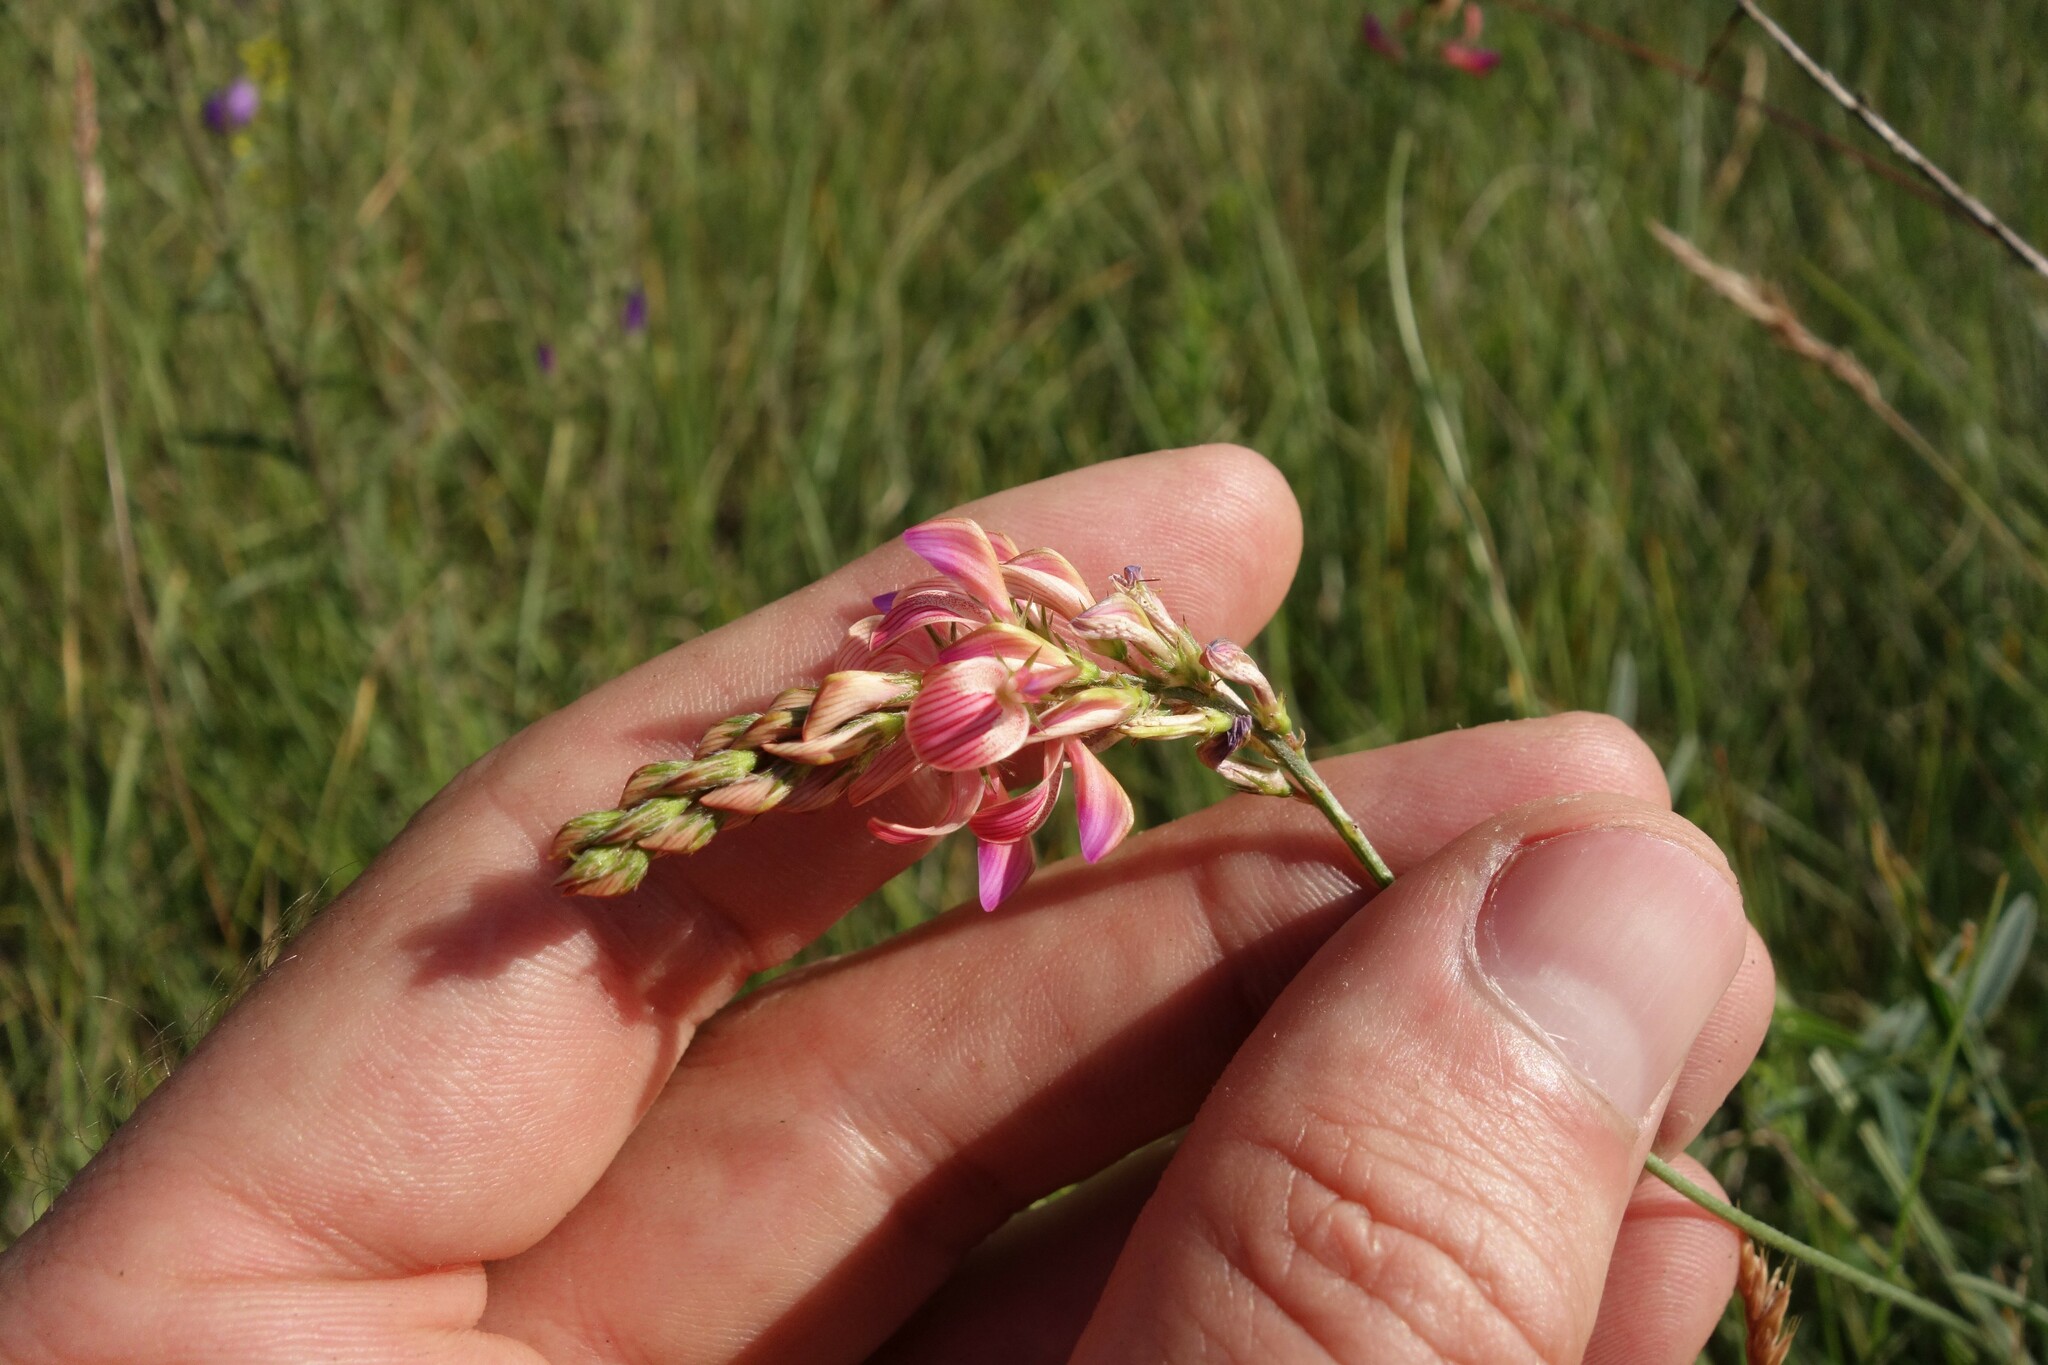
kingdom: Plantae
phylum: Tracheophyta
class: Magnoliopsida
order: Fabales
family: Fabaceae
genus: Onobrychis
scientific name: Onobrychis viciifolia
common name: Sainfoin
